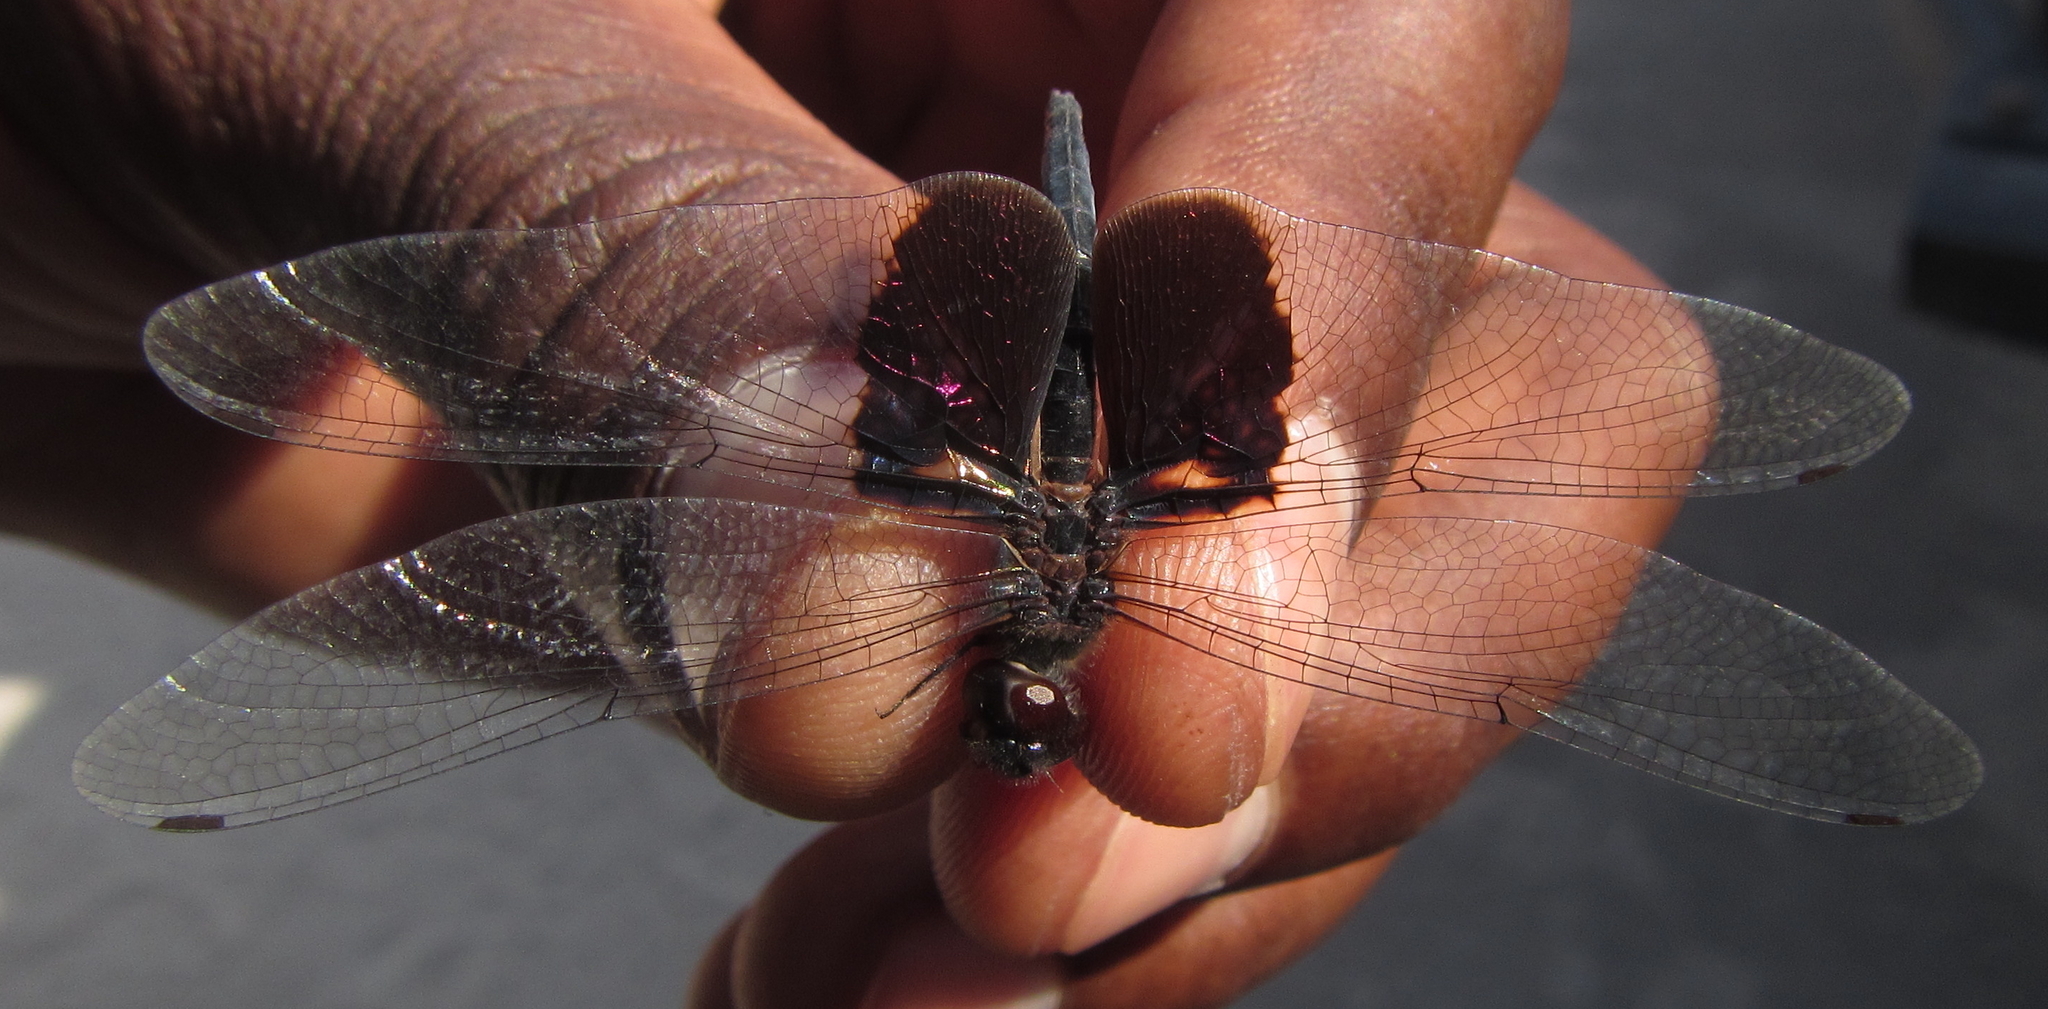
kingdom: Animalia
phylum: Arthropoda
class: Insecta
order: Odonata
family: Libellulidae
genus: Rhyothemis
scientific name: Rhyothemis semihyalina
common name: Phantom flutterer
